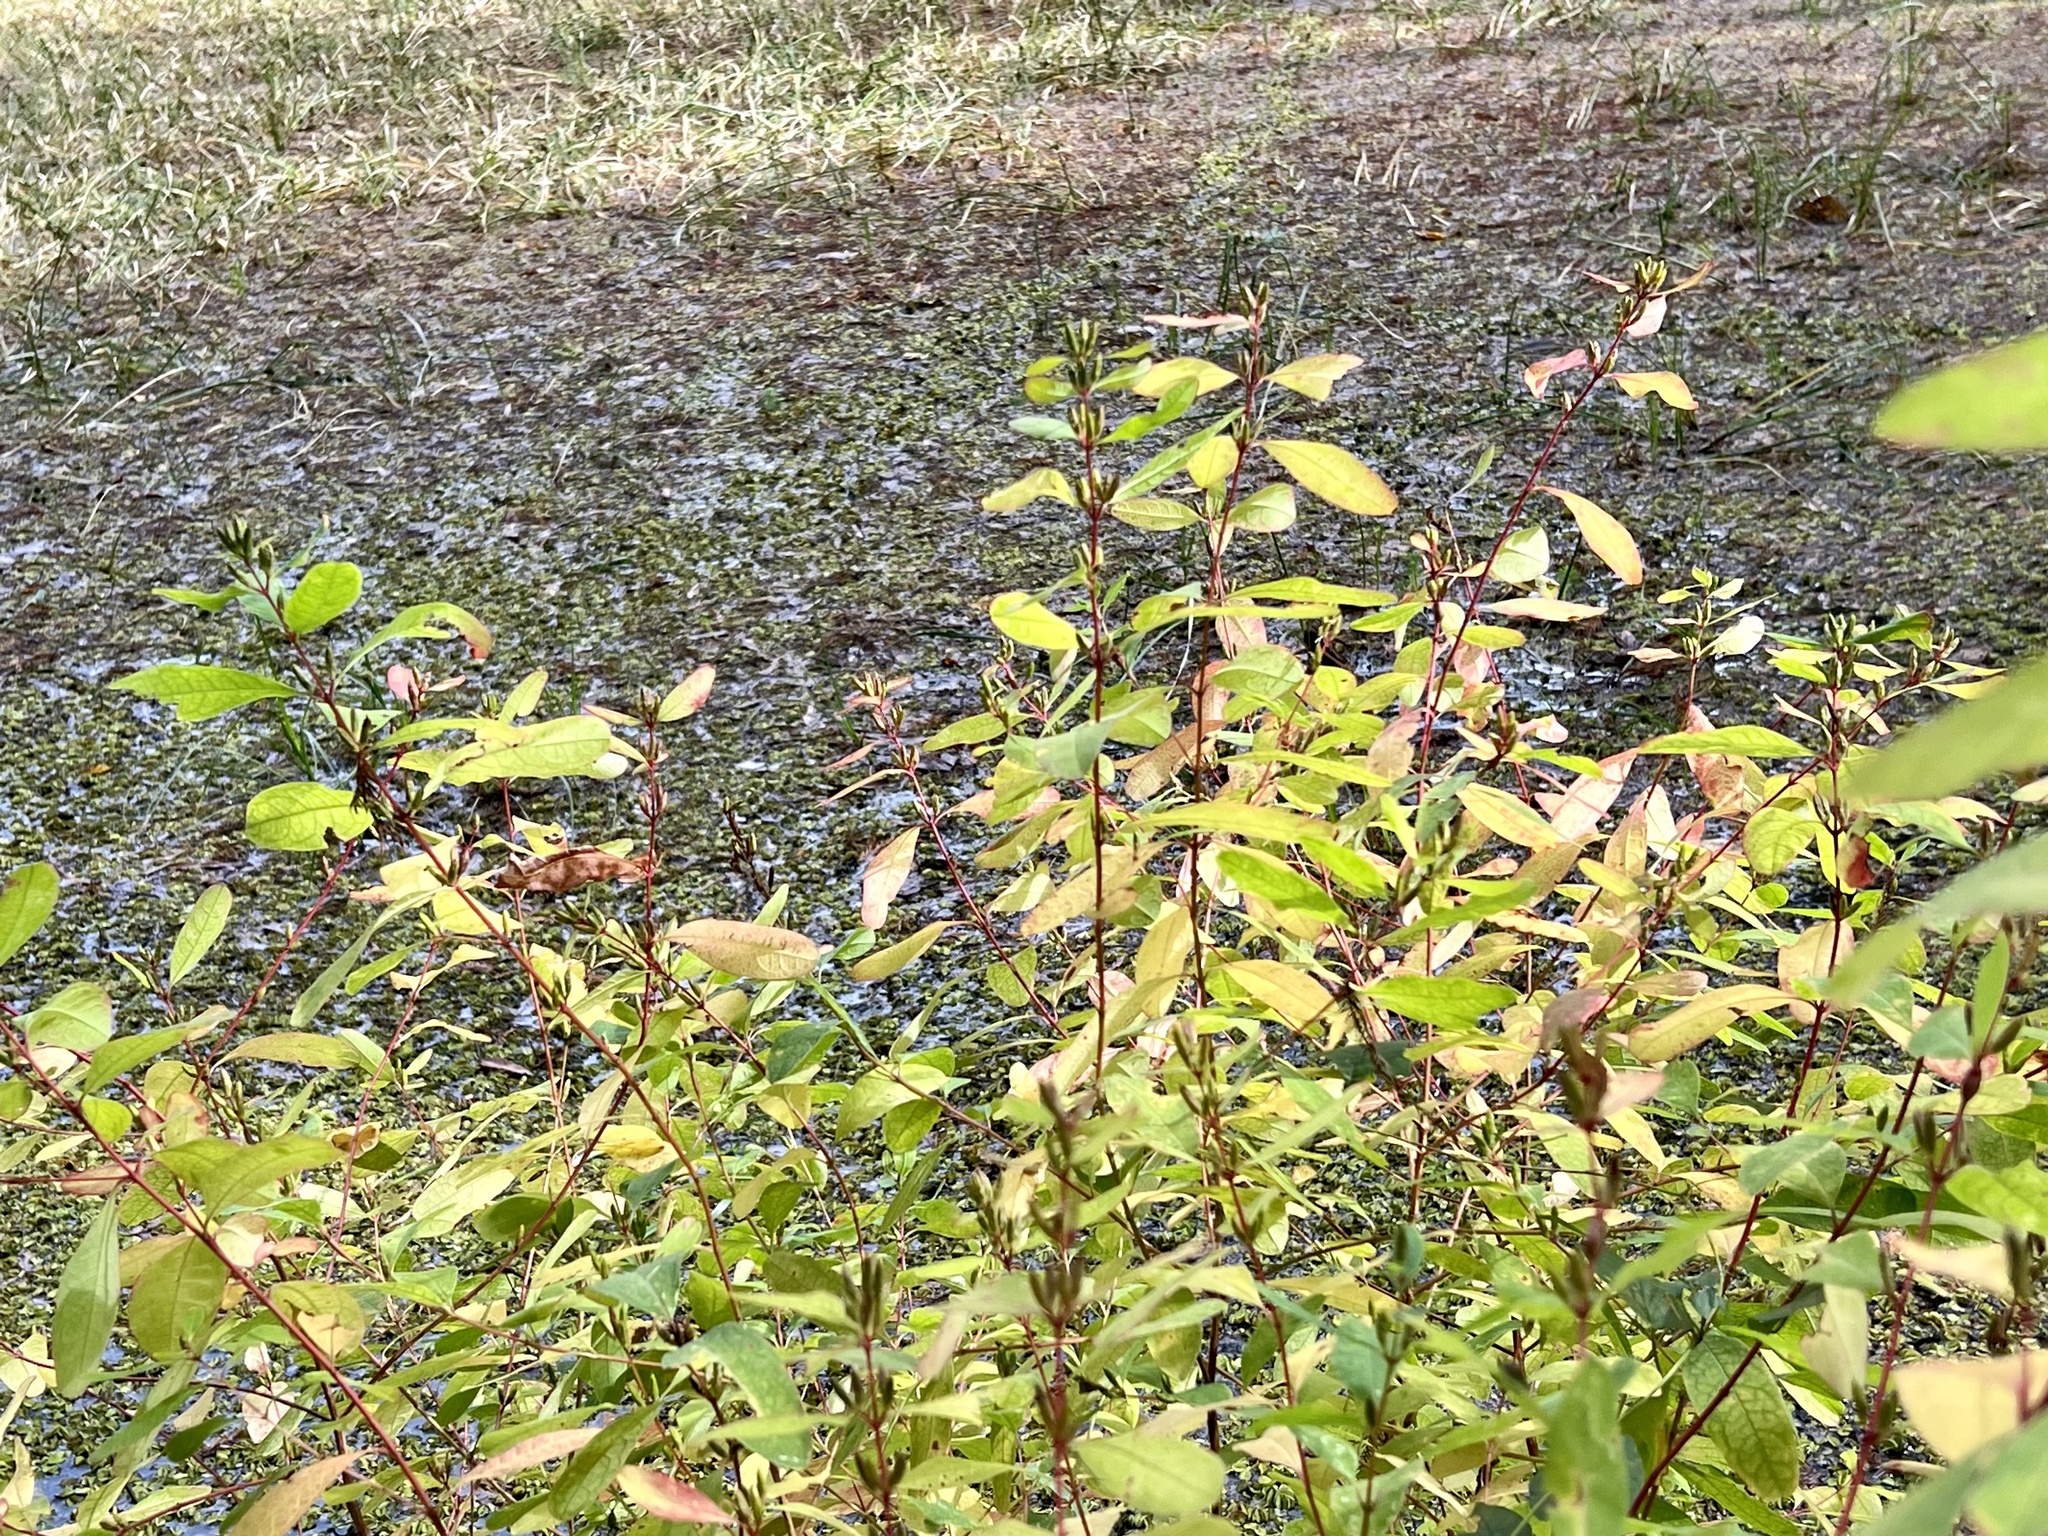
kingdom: Plantae
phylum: Tracheophyta
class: Magnoliopsida
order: Malpighiales
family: Hypericaceae
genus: Triadenum
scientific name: Triadenum walteri
